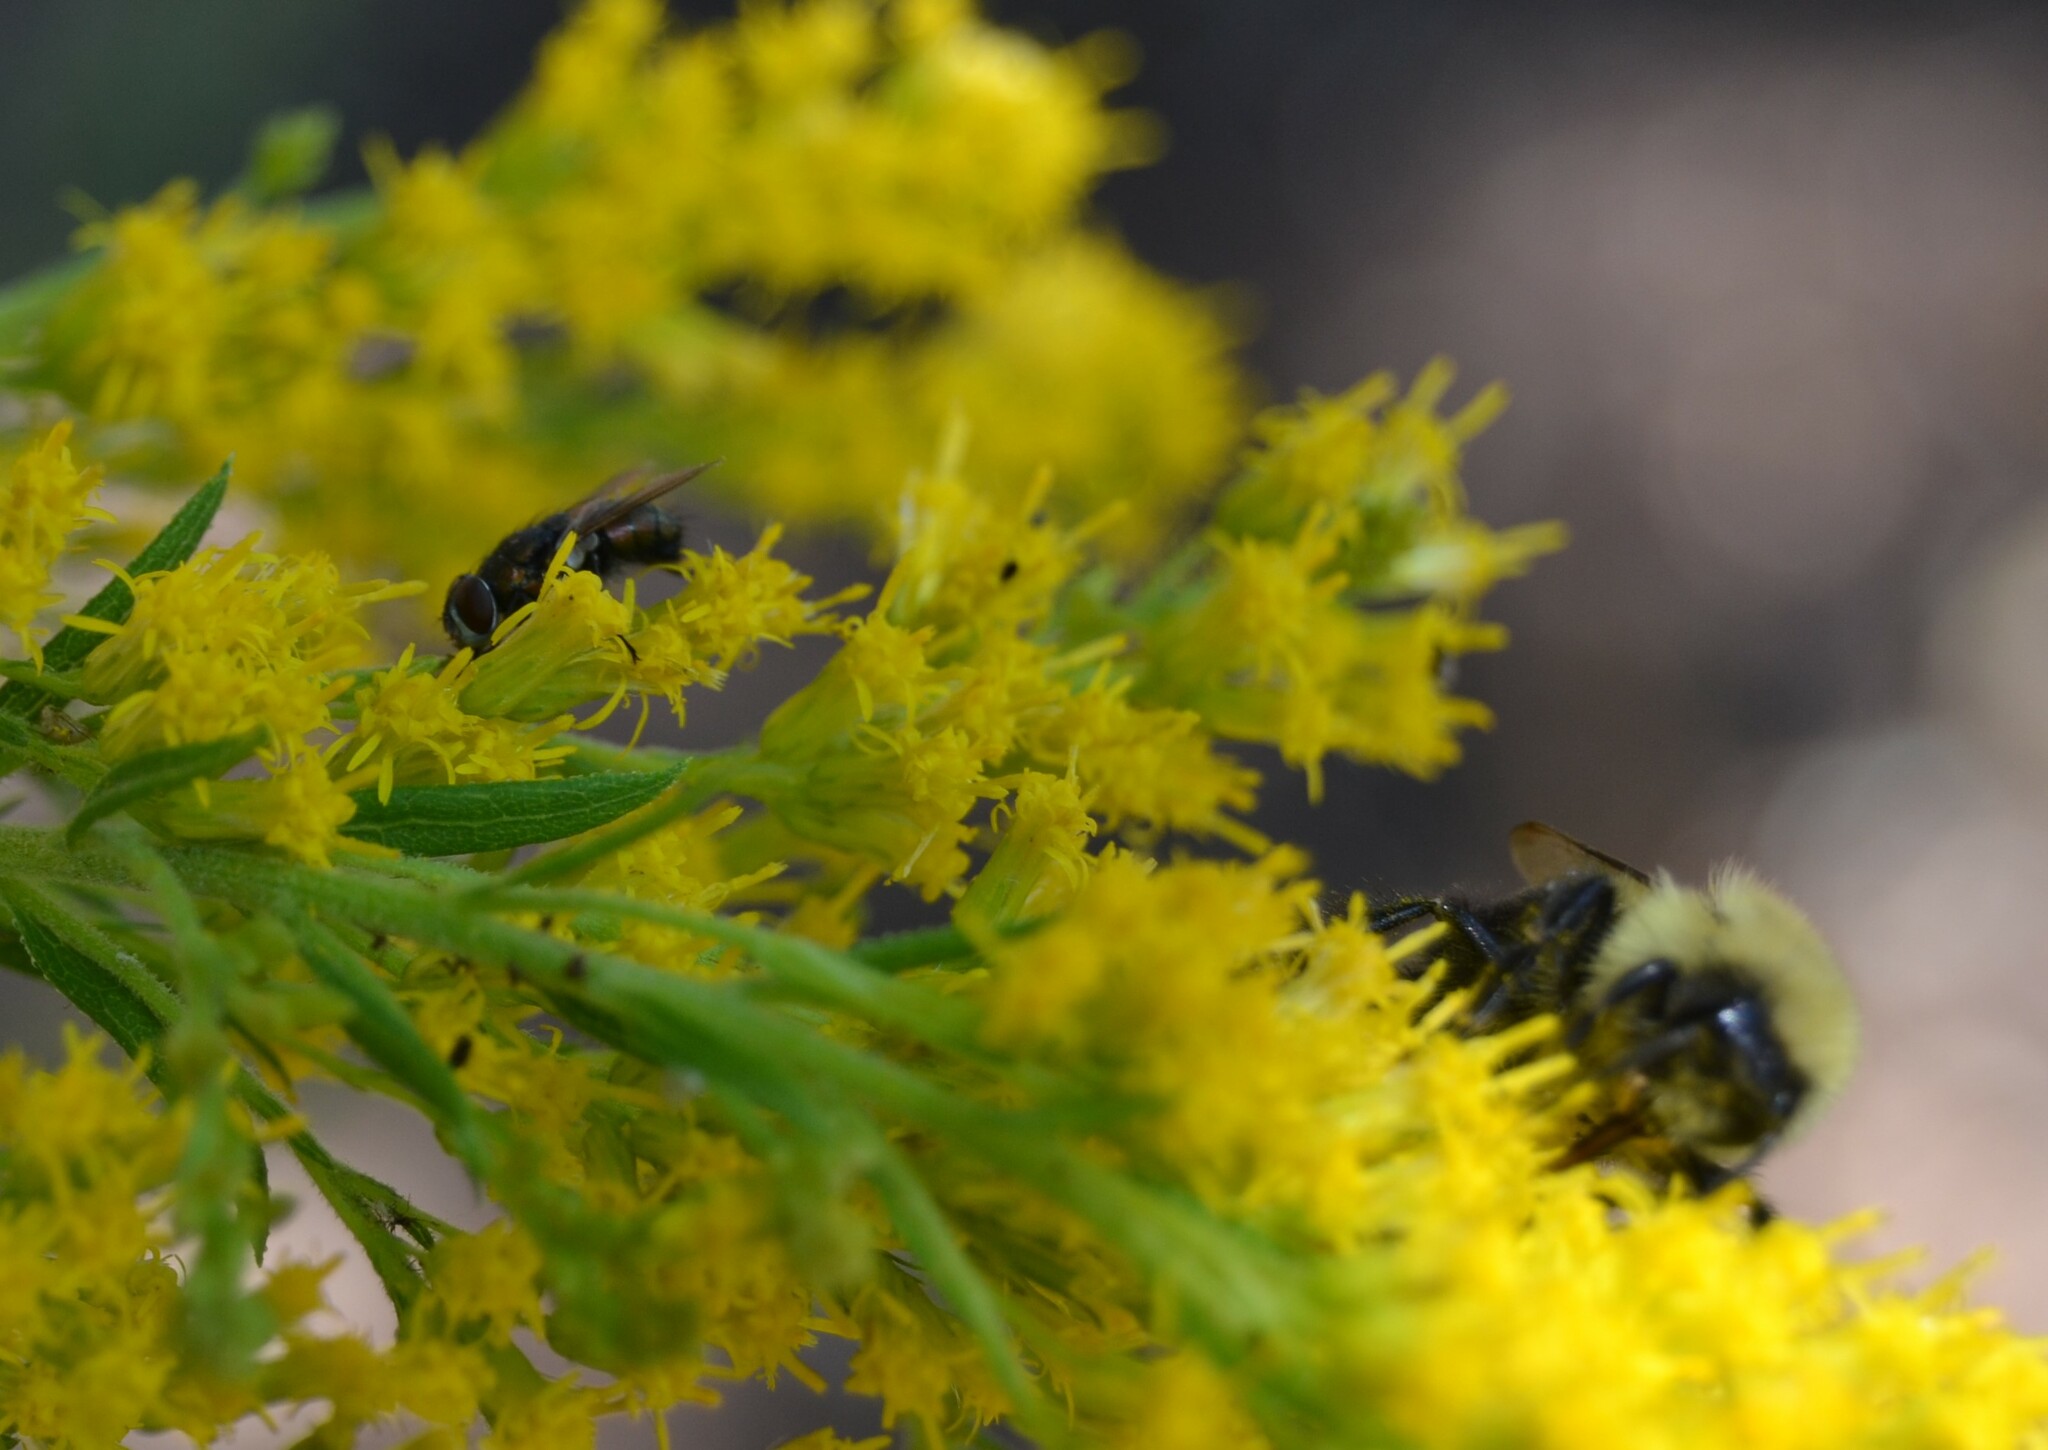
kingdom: Animalia
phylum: Arthropoda
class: Insecta
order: Hymenoptera
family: Apidae
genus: Bombus
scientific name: Bombus impatiens
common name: Common eastern bumble bee
